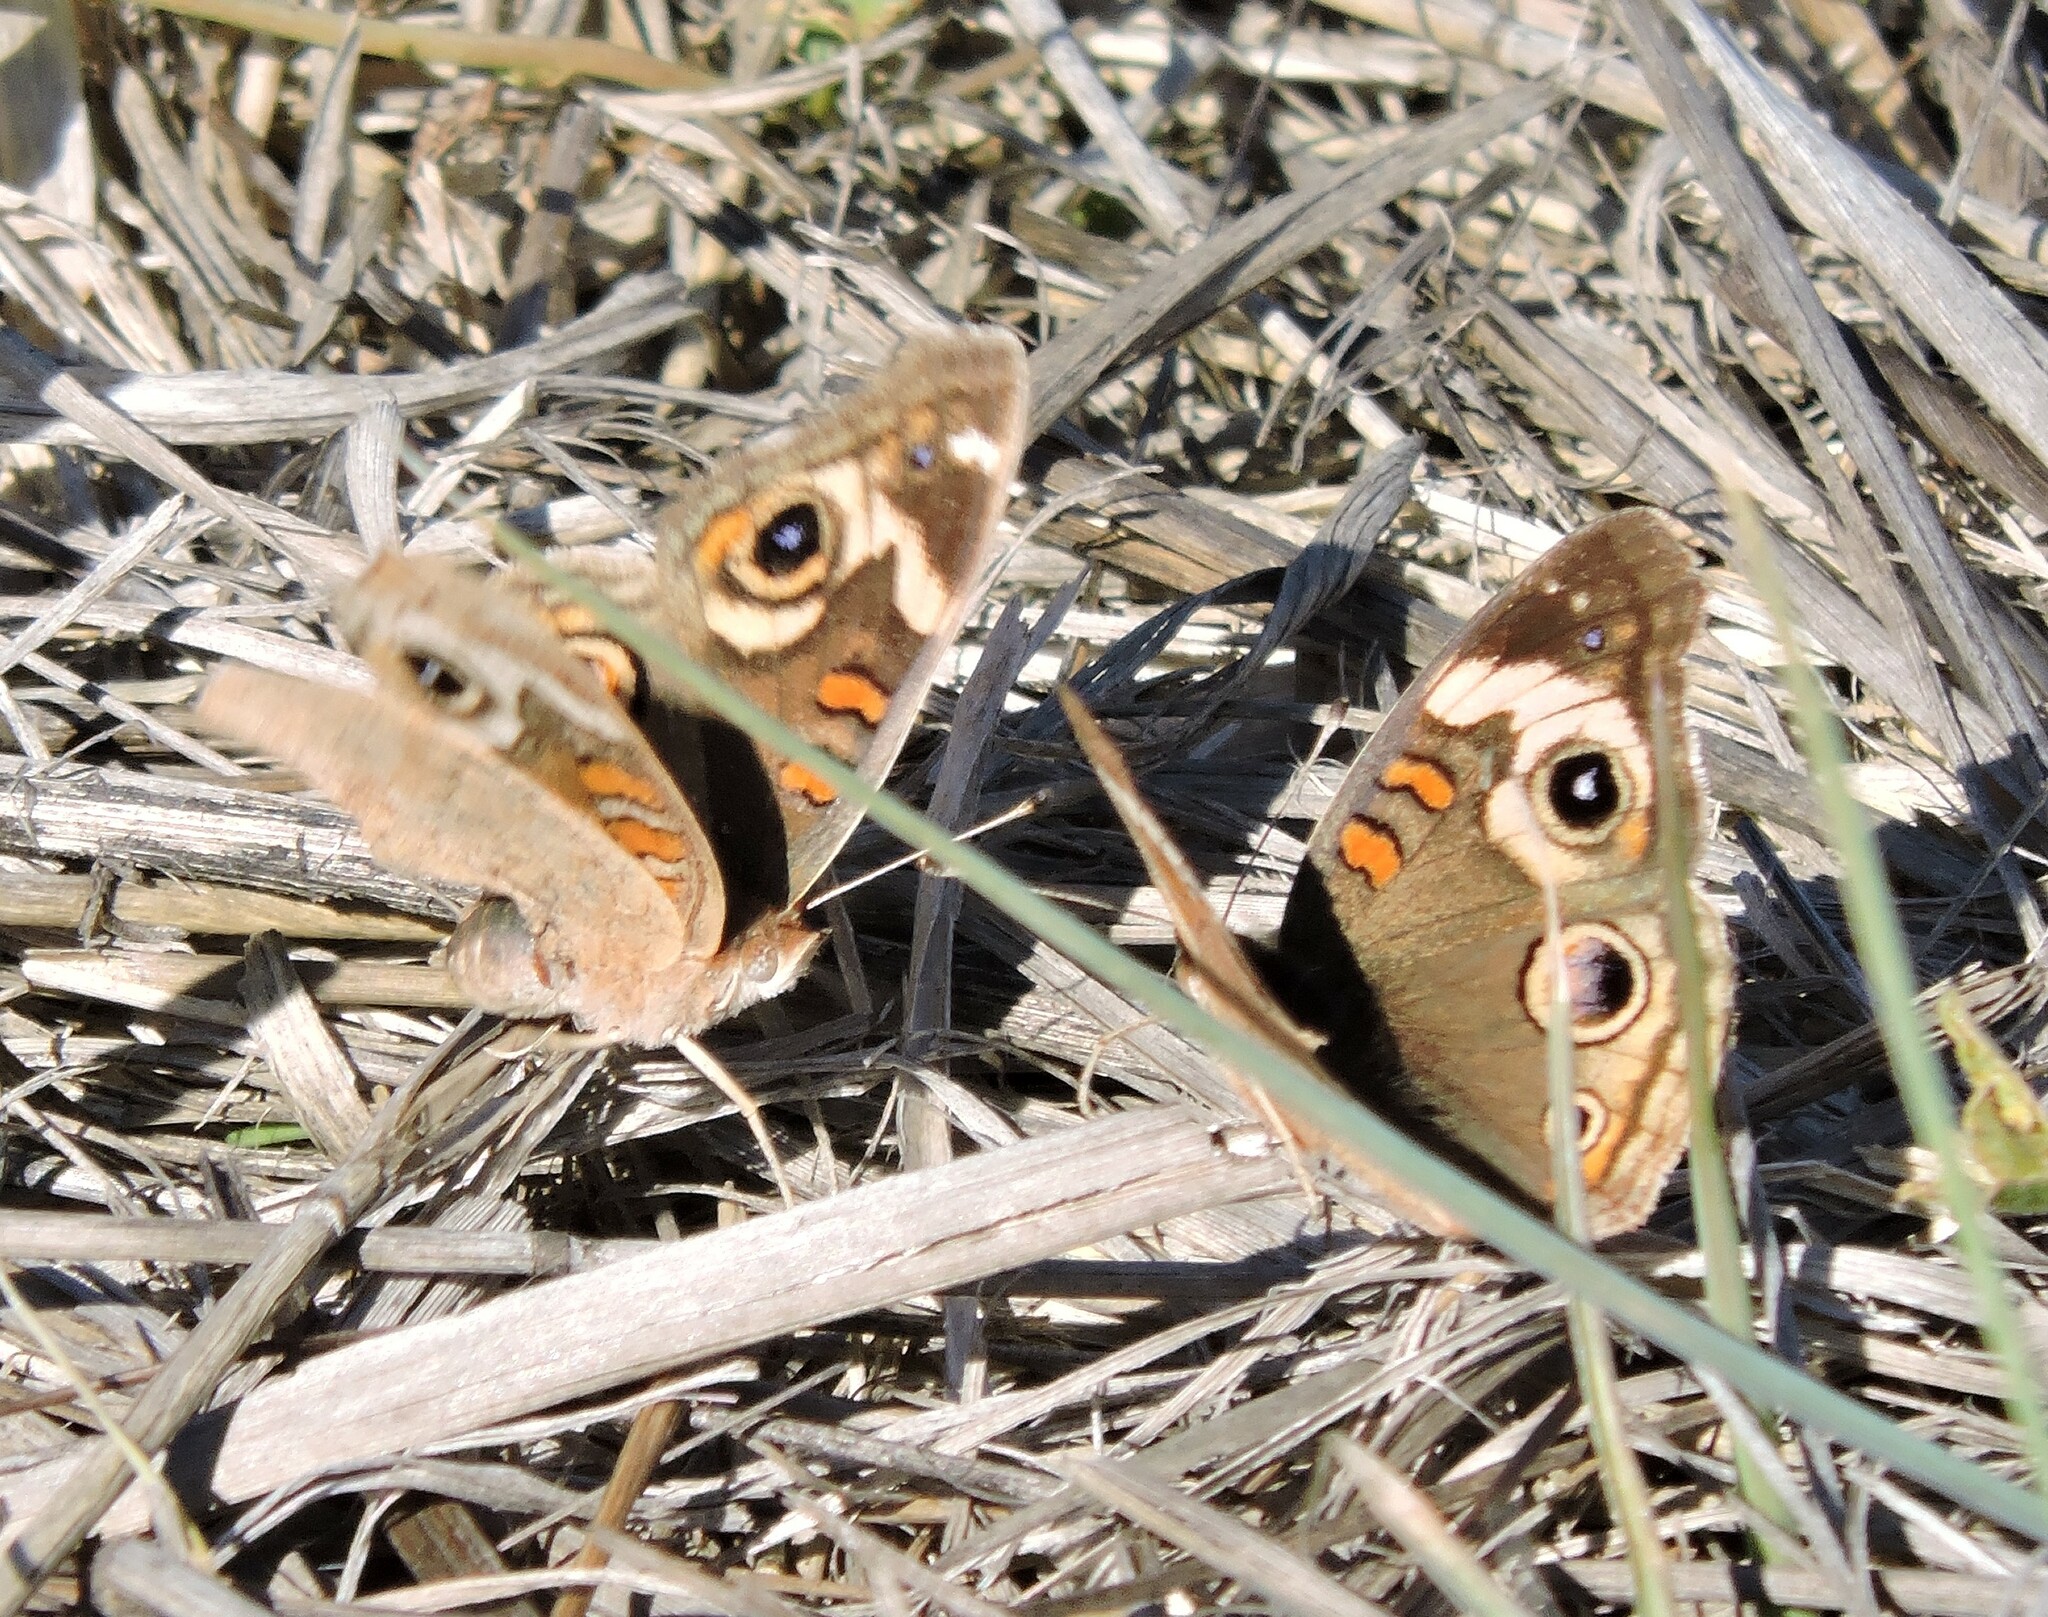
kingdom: Animalia
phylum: Arthropoda
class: Insecta
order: Lepidoptera
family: Nymphalidae
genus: Junonia
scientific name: Junonia grisea
